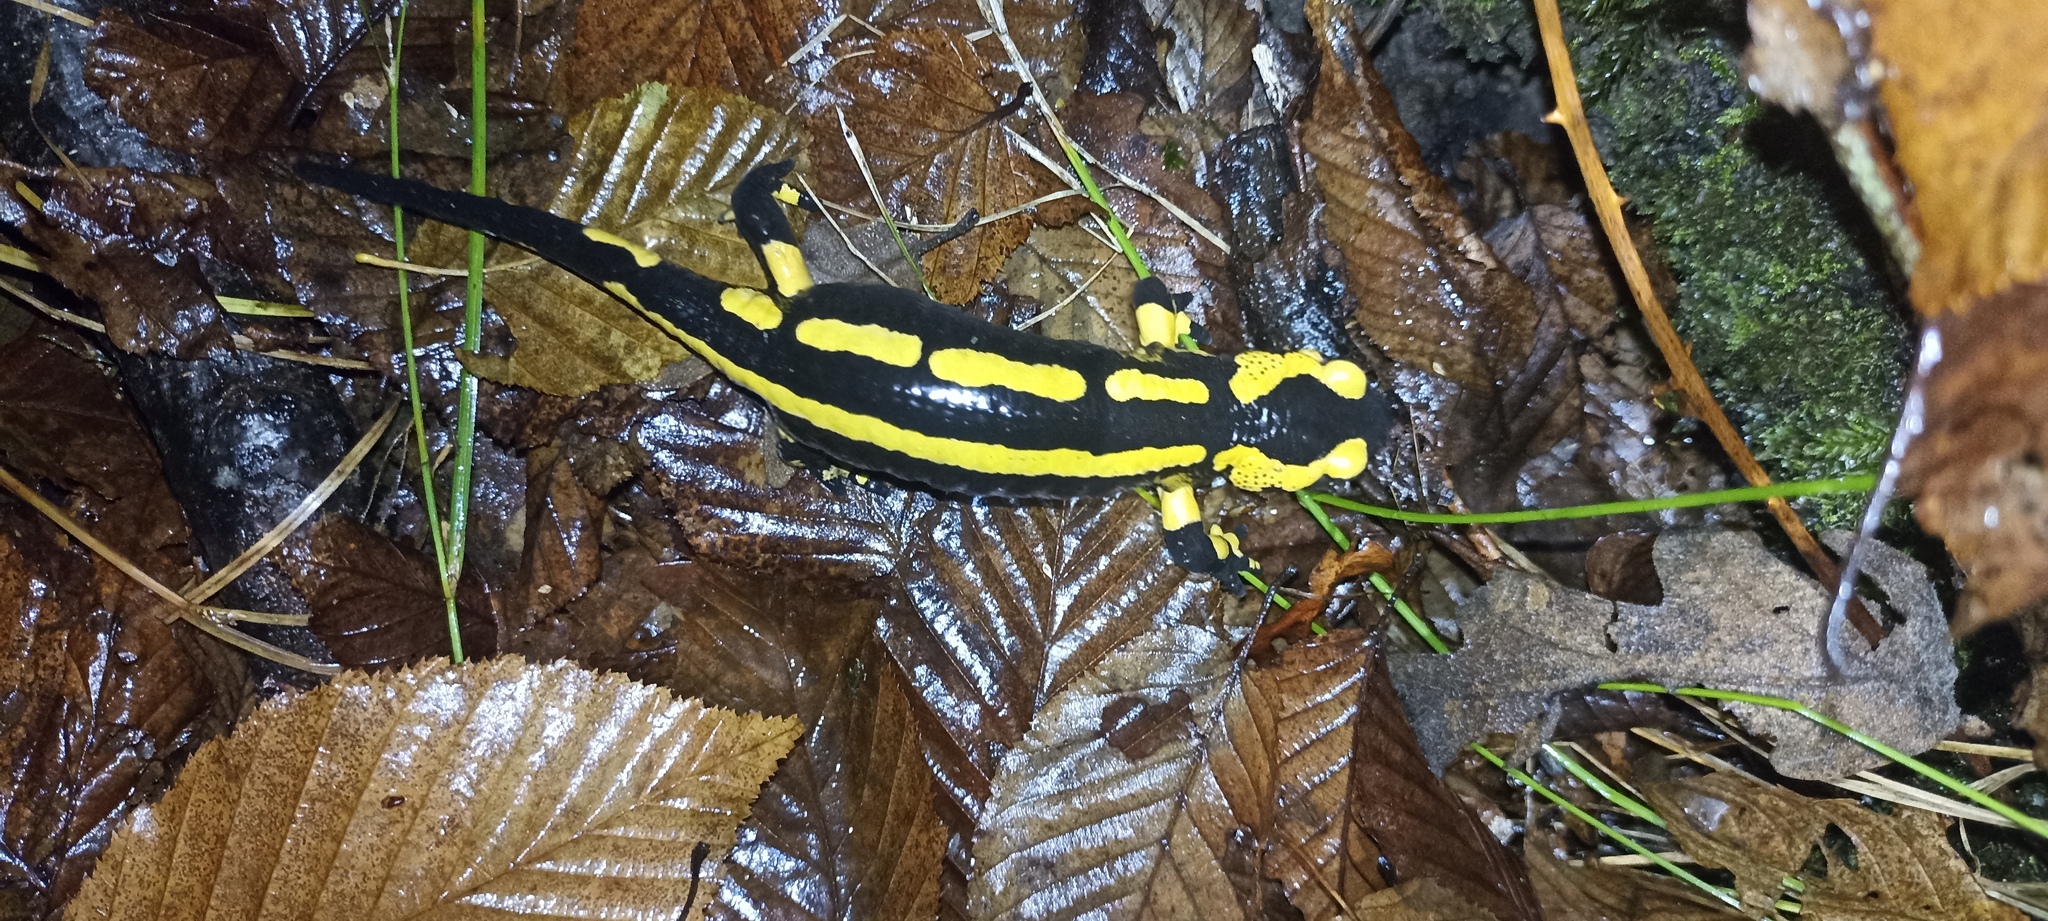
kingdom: Animalia
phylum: Chordata
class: Amphibia
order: Caudata
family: Salamandridae
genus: Salamandra
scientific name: Salamandra salamandra
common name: Fire salamander
